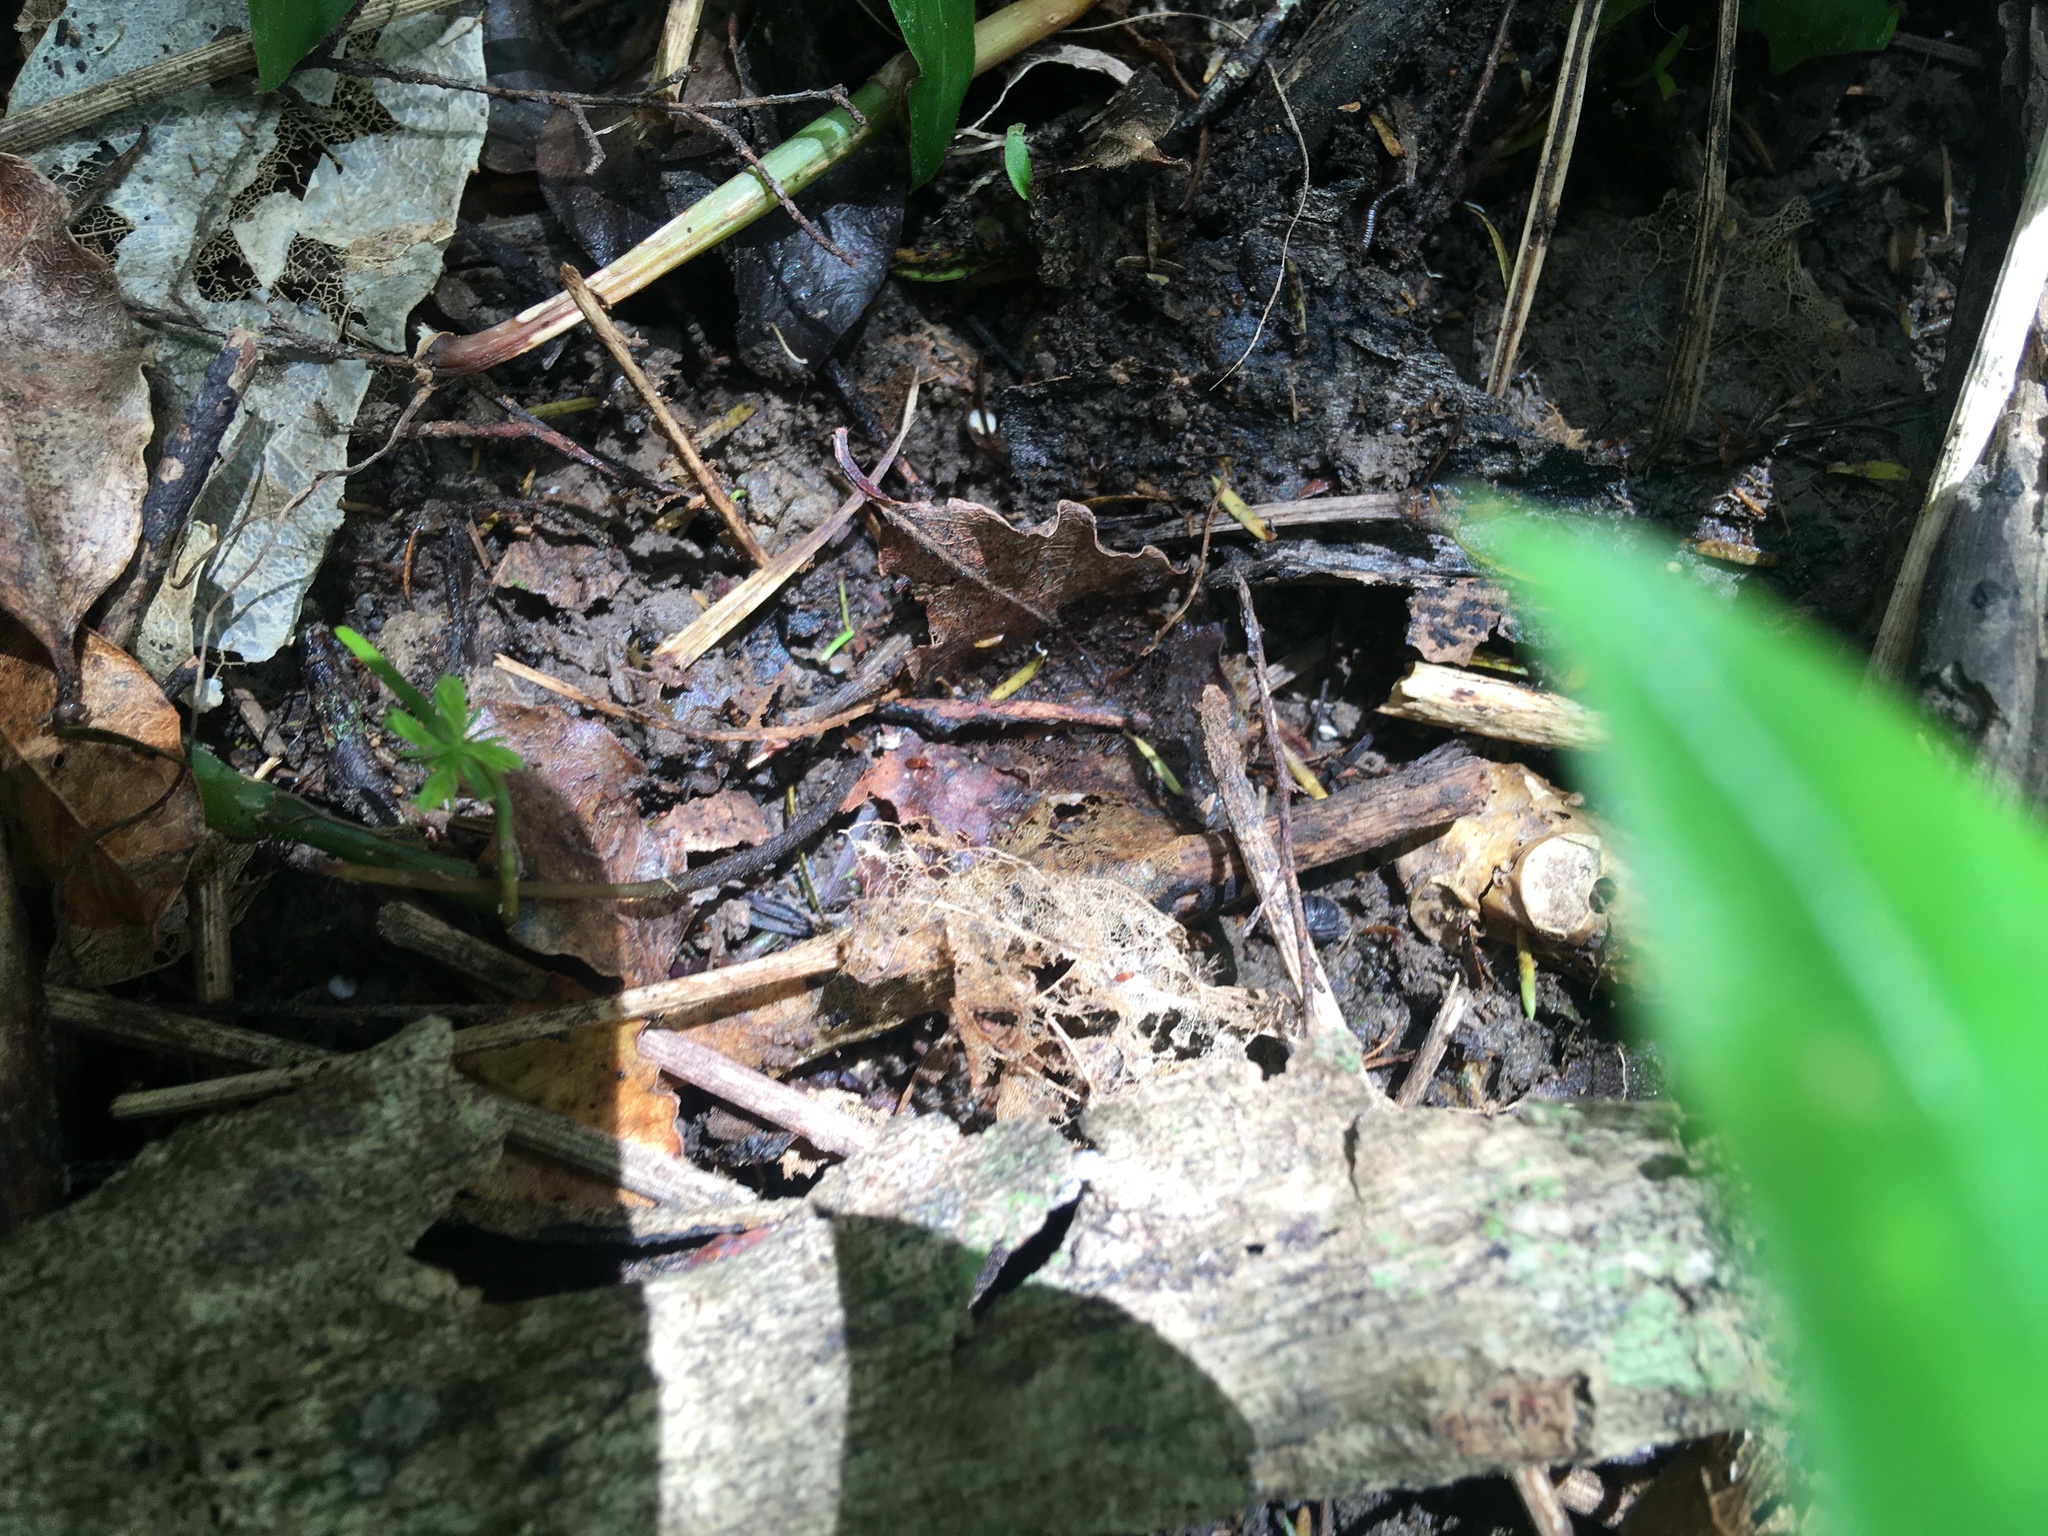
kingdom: Plantae
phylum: Tracheophyta
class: Pinopsida
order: Pinales
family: Podocarpaceae
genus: Dacrycarpus
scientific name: Dacrycarpus dacrydioides
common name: White pine
